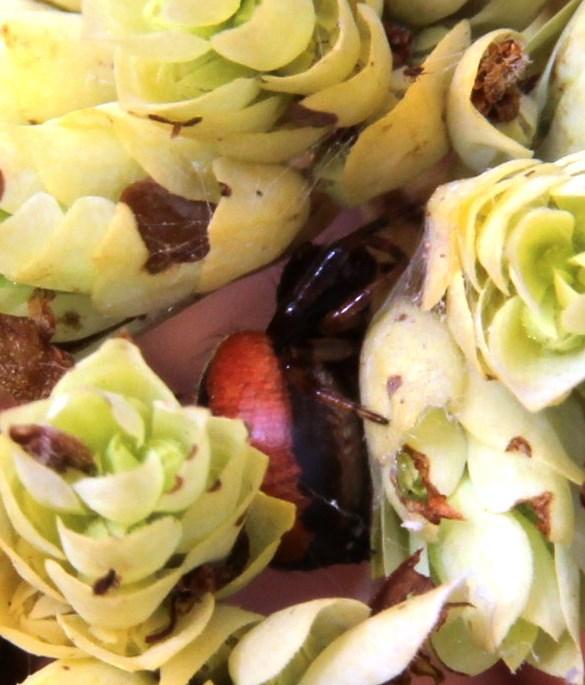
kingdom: Animalia
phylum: Arthropoda
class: Arachnida
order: Araneae
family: Thomisidae
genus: Synema
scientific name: Synema globosum
